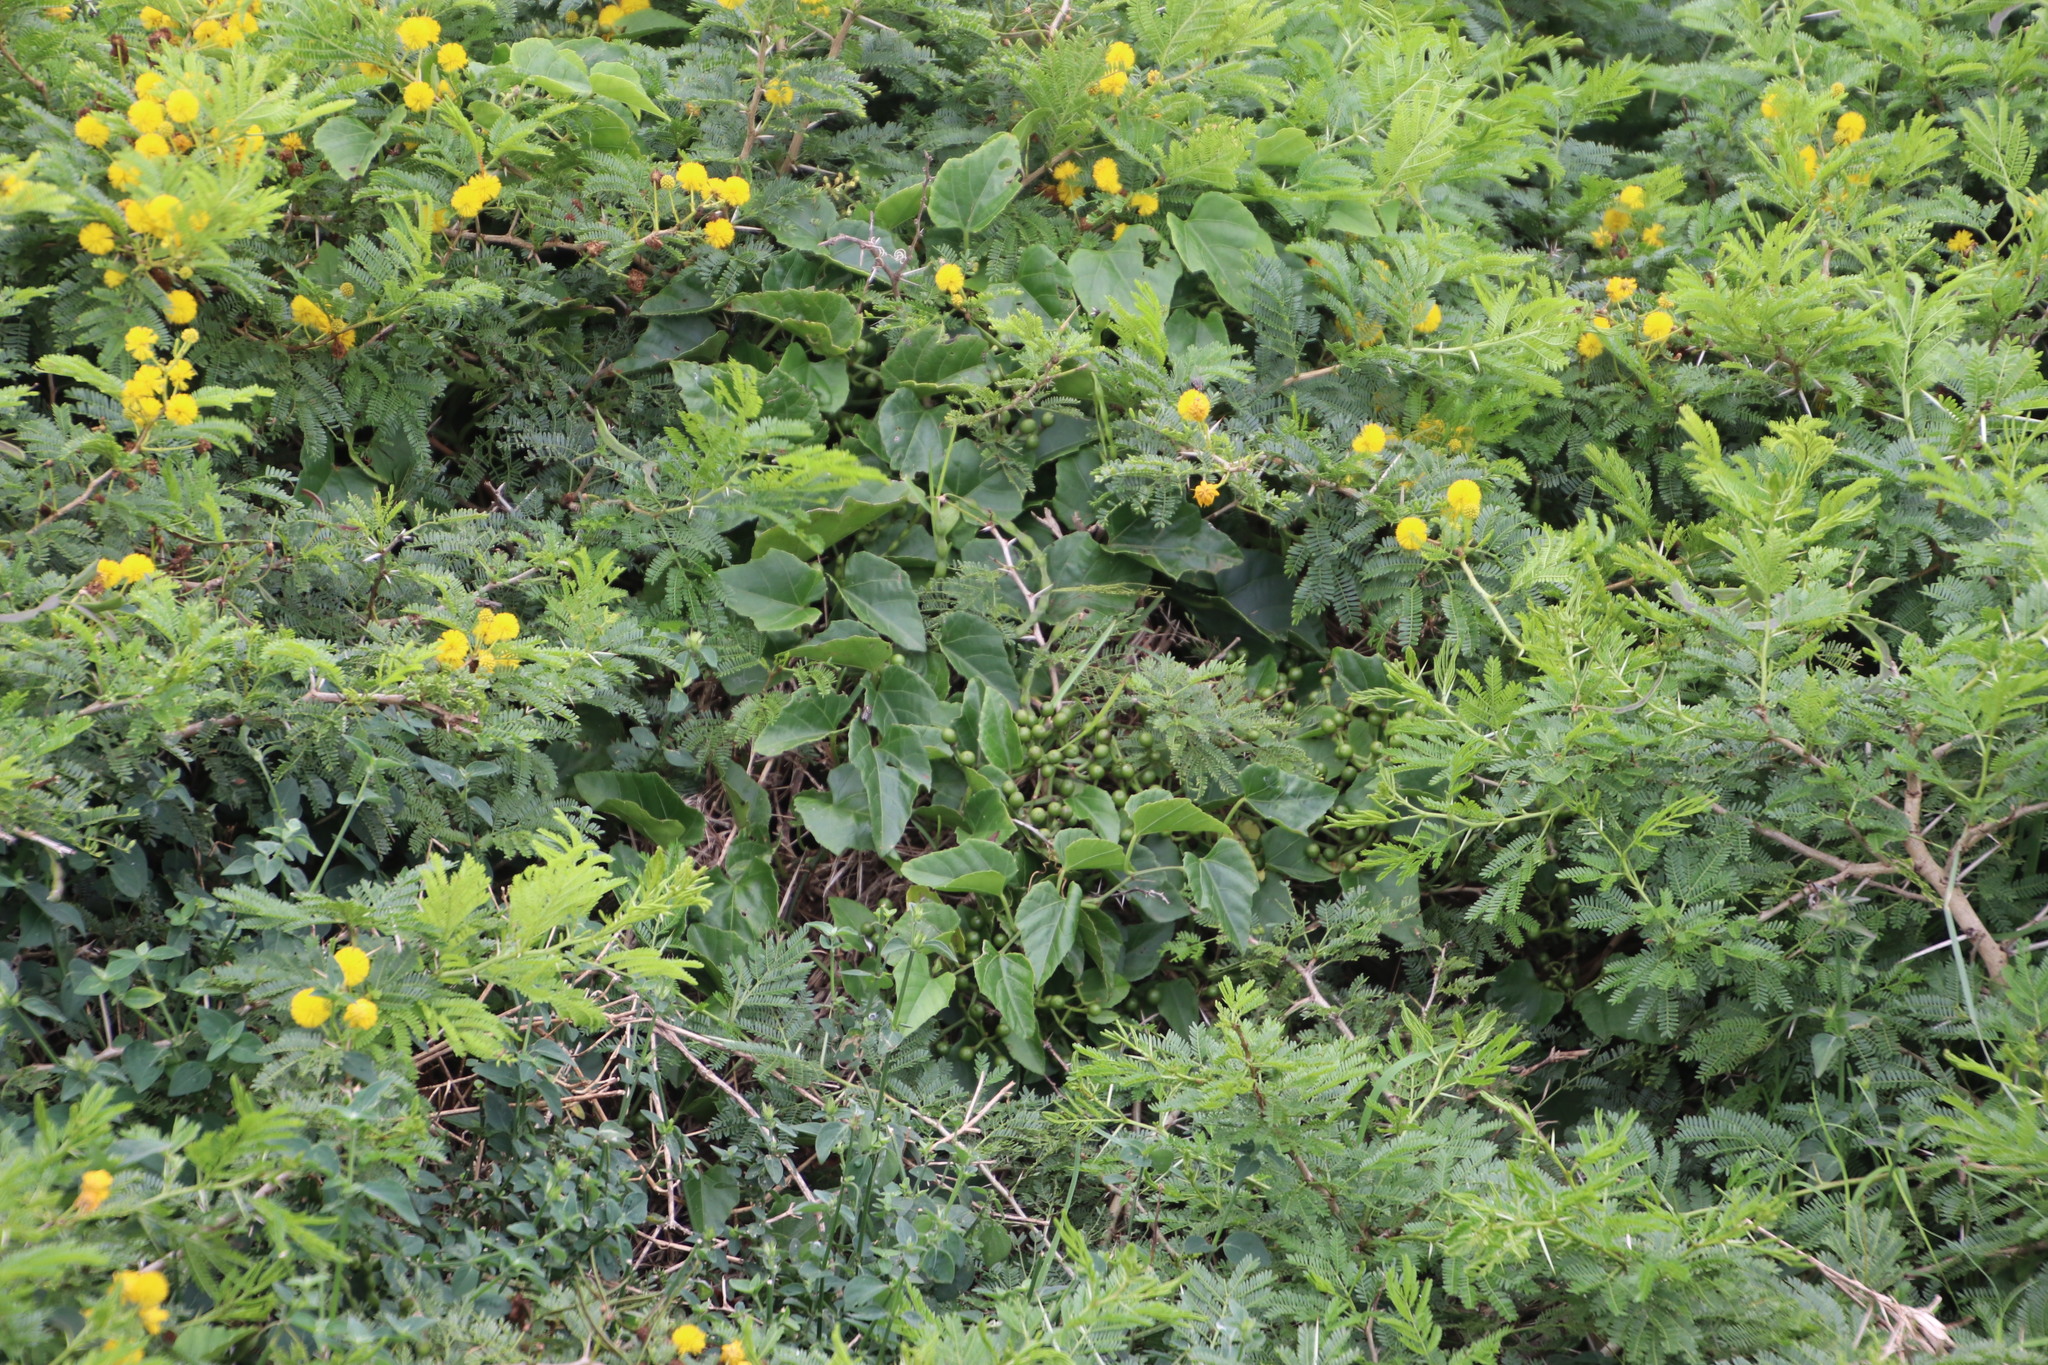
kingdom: Plantae
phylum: Tracheophyta
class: Magnoliopsida
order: Vitales
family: Vitaceae
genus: Cissus
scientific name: Cissus fragilis
